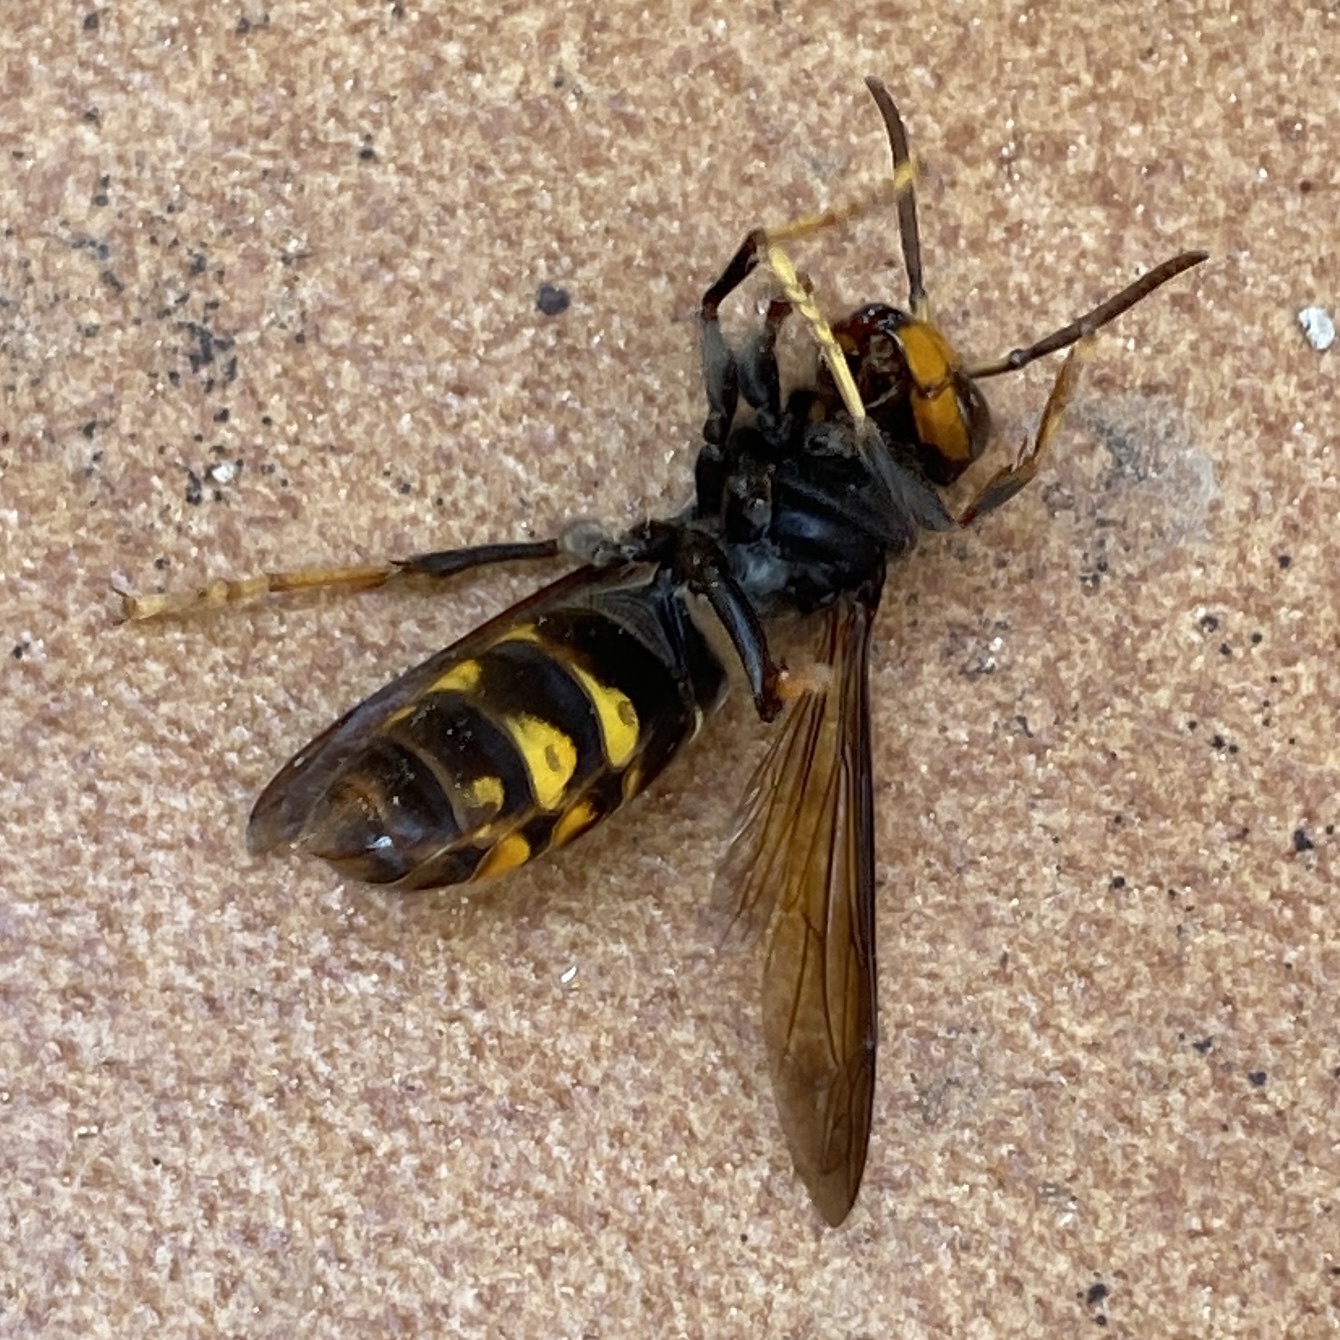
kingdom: Animalia
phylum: Arthropoda
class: Insecta
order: Hymenoptera
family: Vespidae
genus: Vespa
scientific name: Vespa velutina
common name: Asian hornet
